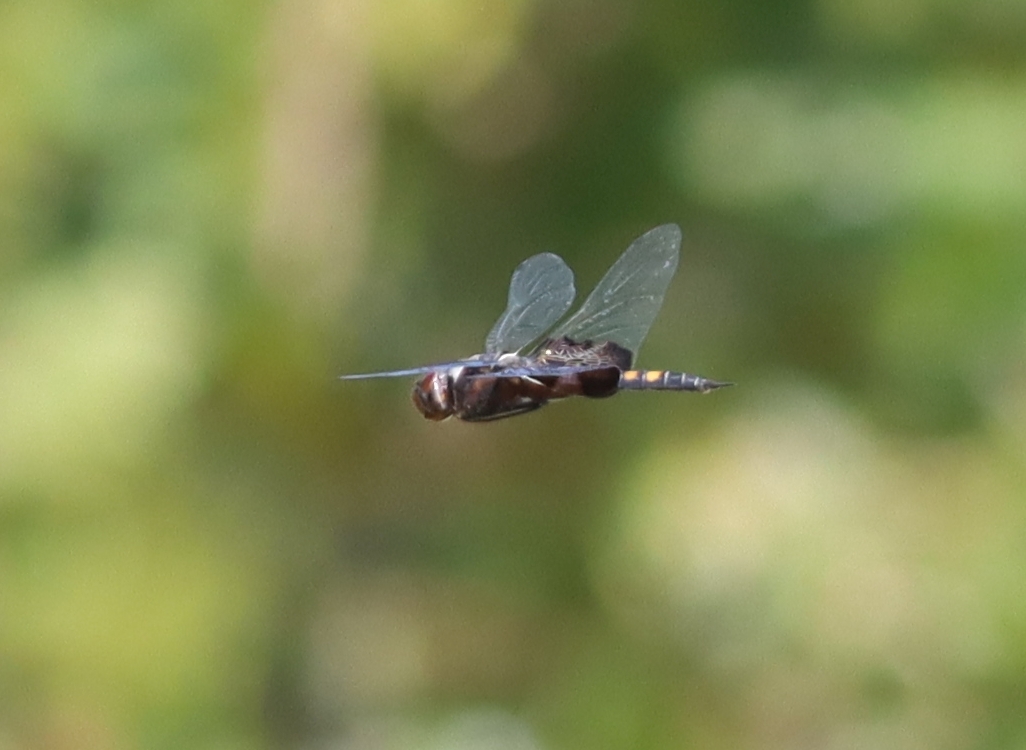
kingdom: Animalia
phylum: Arthropoda
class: Insecta
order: Odonata
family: Libellulidae
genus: Tramea
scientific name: Tramea lacerata
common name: Black saddlebags
